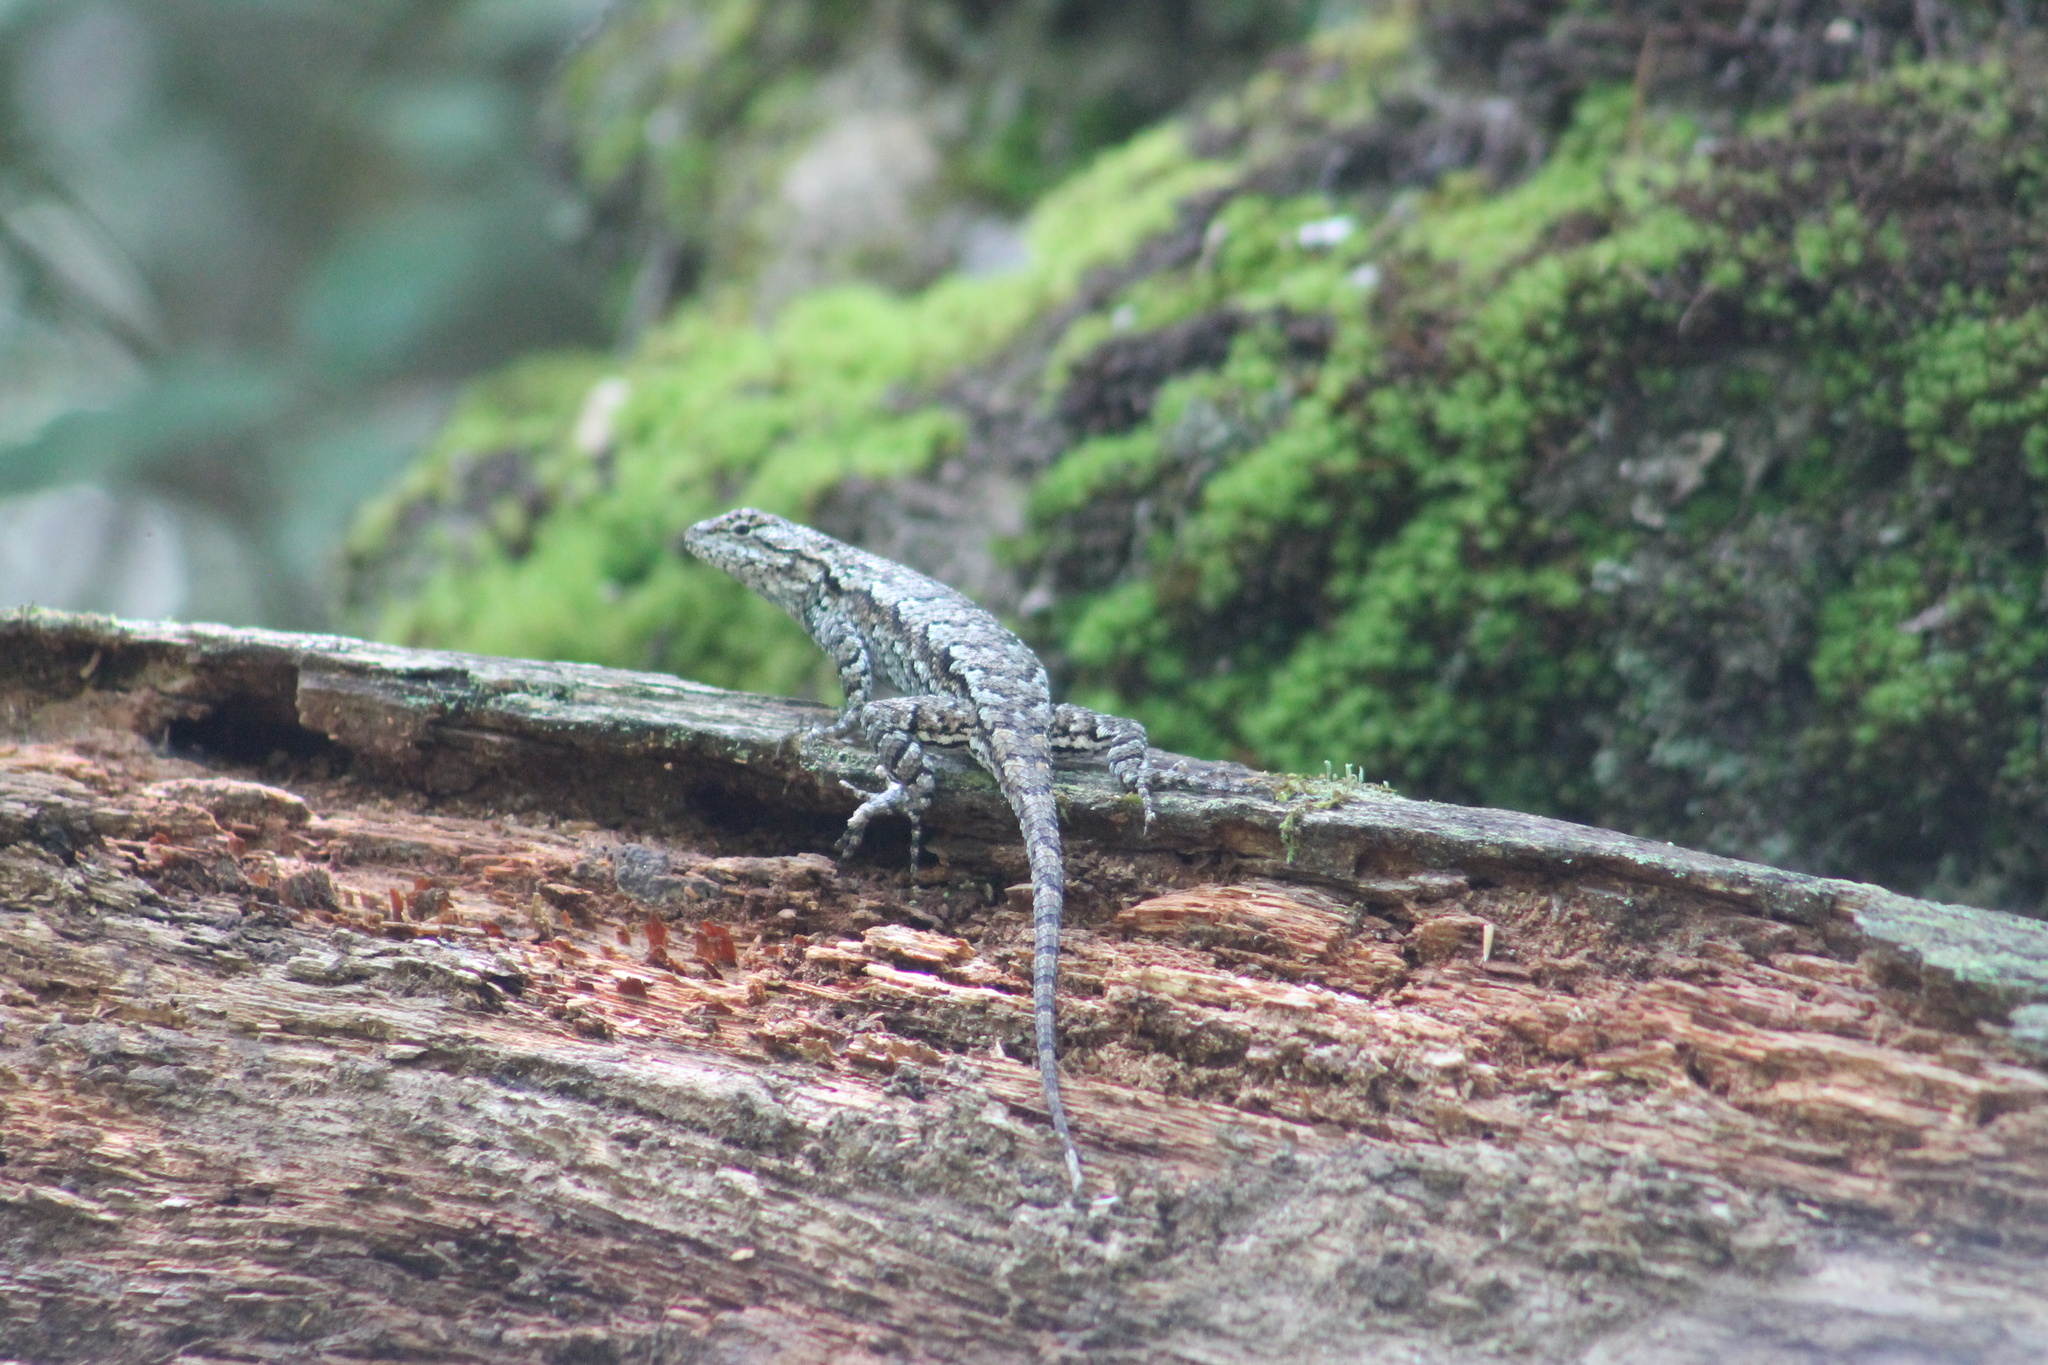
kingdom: Animalia
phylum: Chordata
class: Squamata
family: Phrynosomatidae
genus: Sceloporus
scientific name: Sceloporus undulatus
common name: Eastern fence lizard
